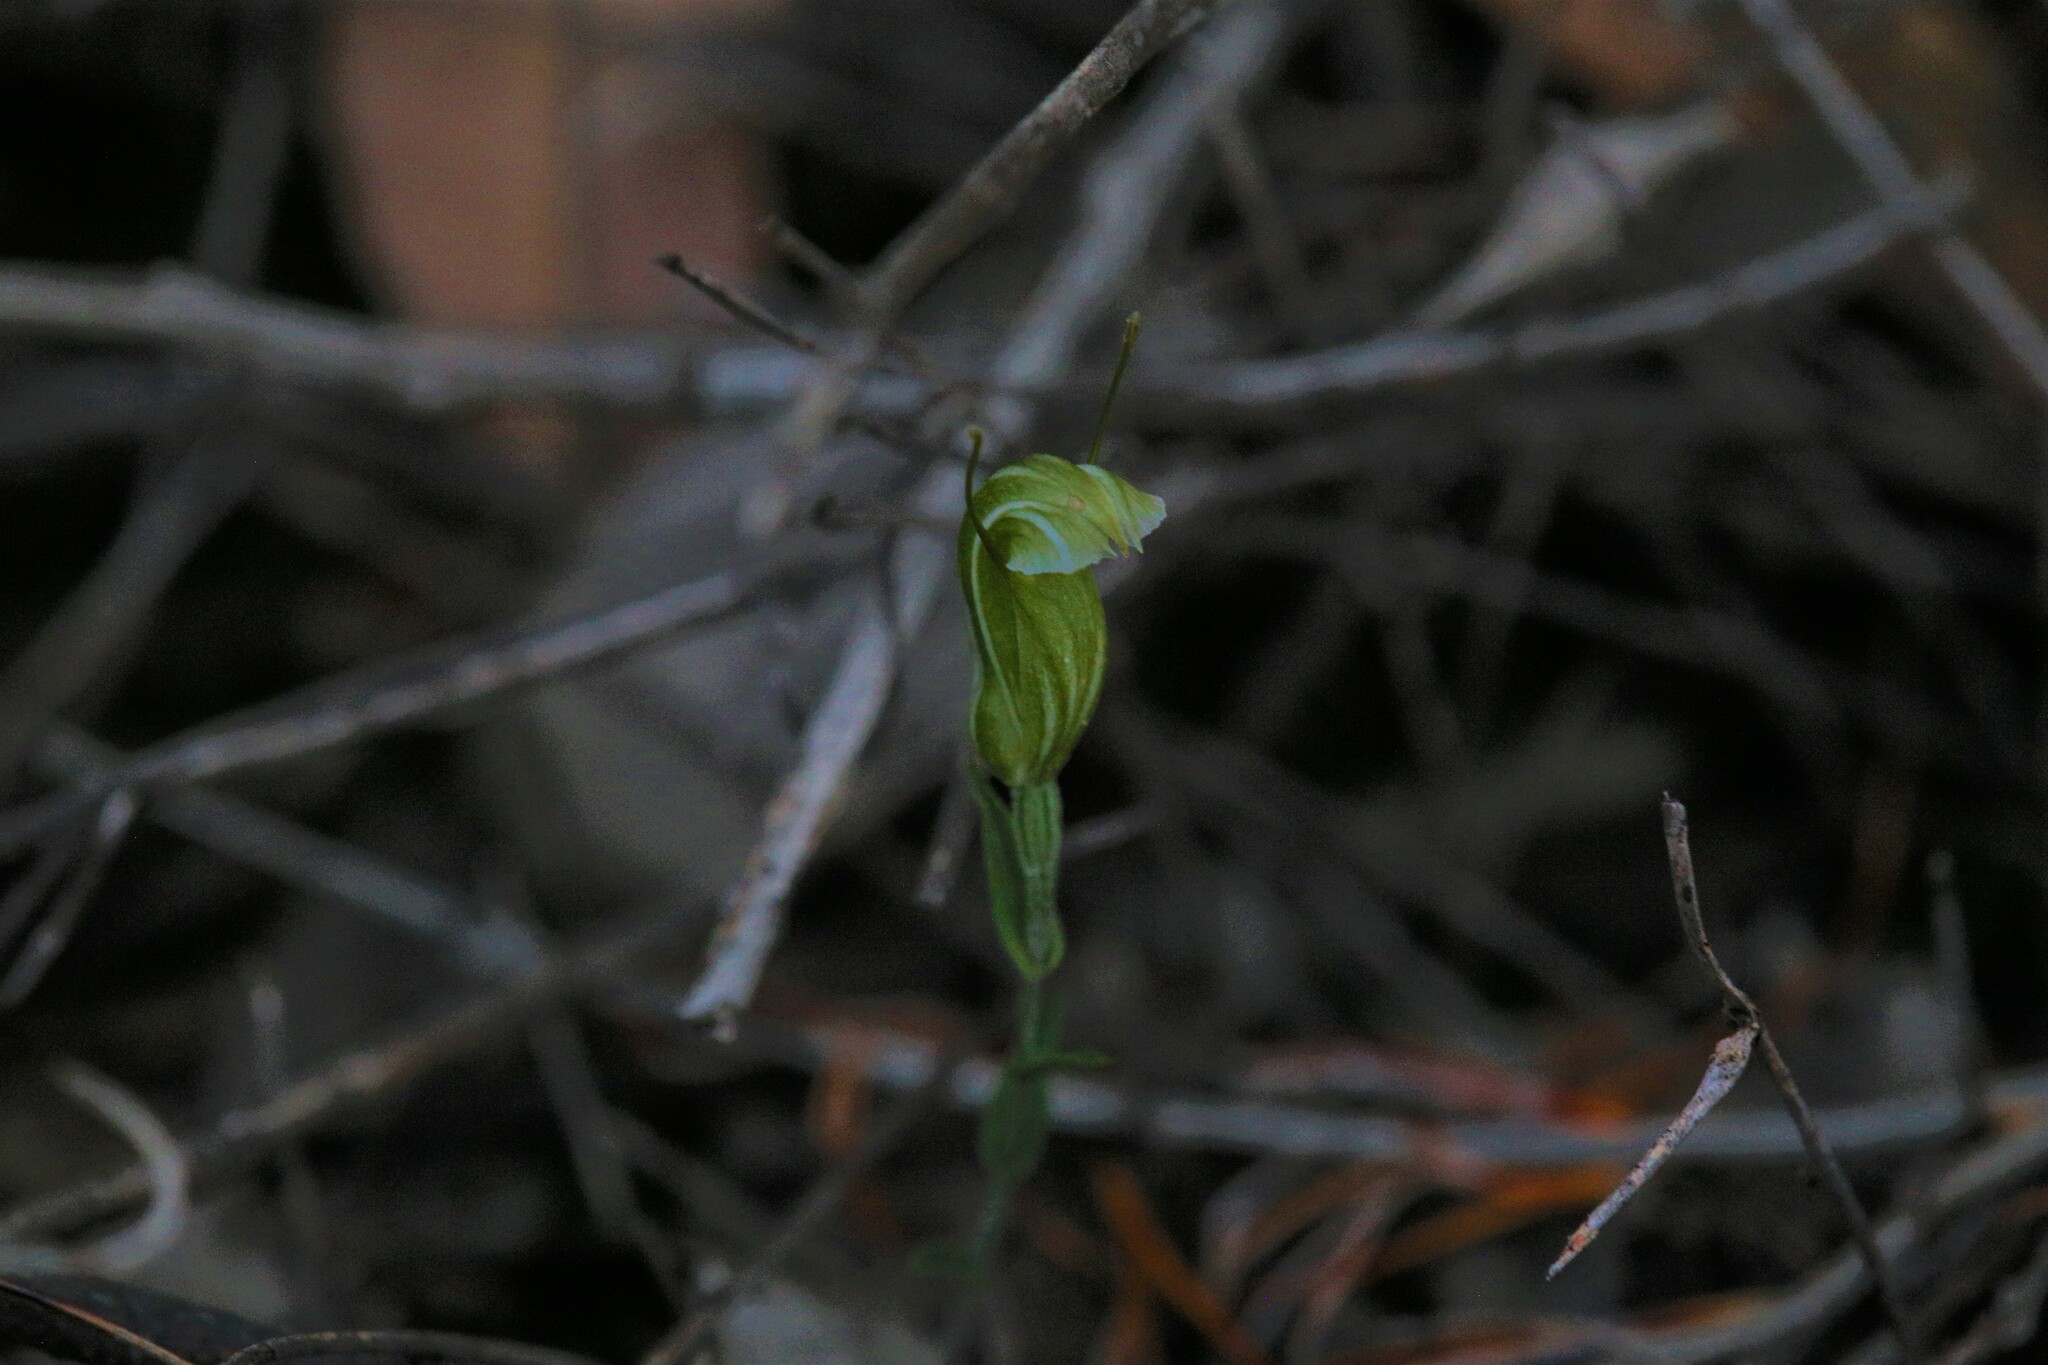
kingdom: Plantae
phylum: Tracheophyta
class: Liliopsida
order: Asparagales
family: Orchidaceae
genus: Pterostylis
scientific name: Pterostylis dilatata
